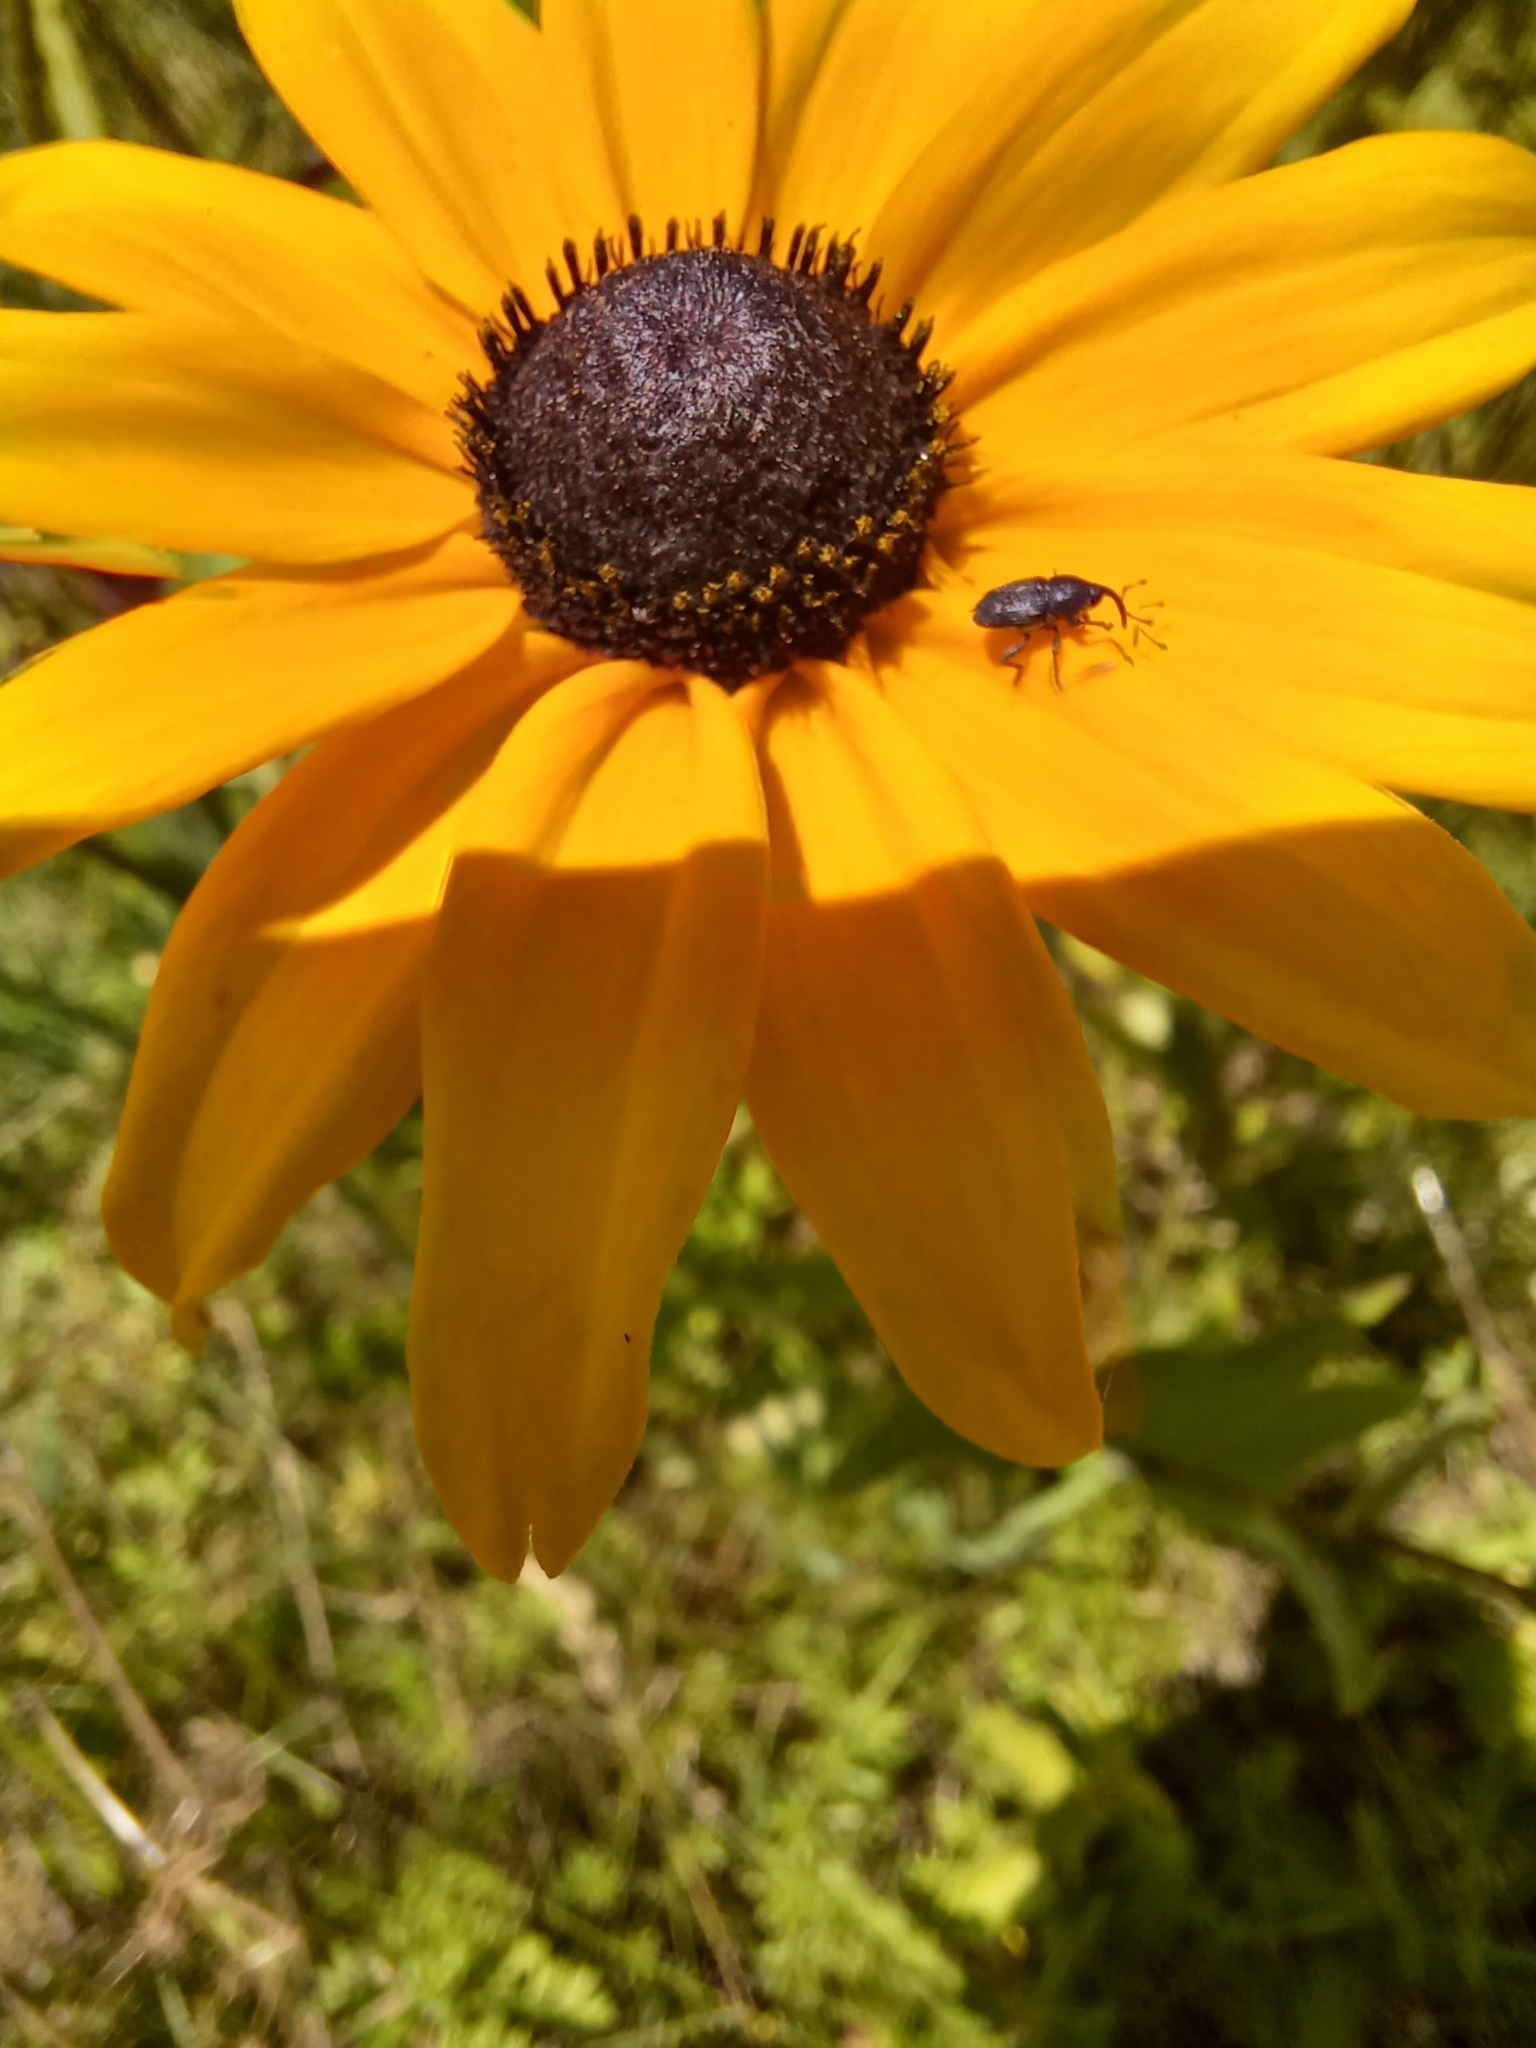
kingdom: Animalia
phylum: Arthropoda
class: Insecta
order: Coleoptera
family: Curculionidae
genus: Odontocorynus
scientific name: Odontocorynus salebrosus
